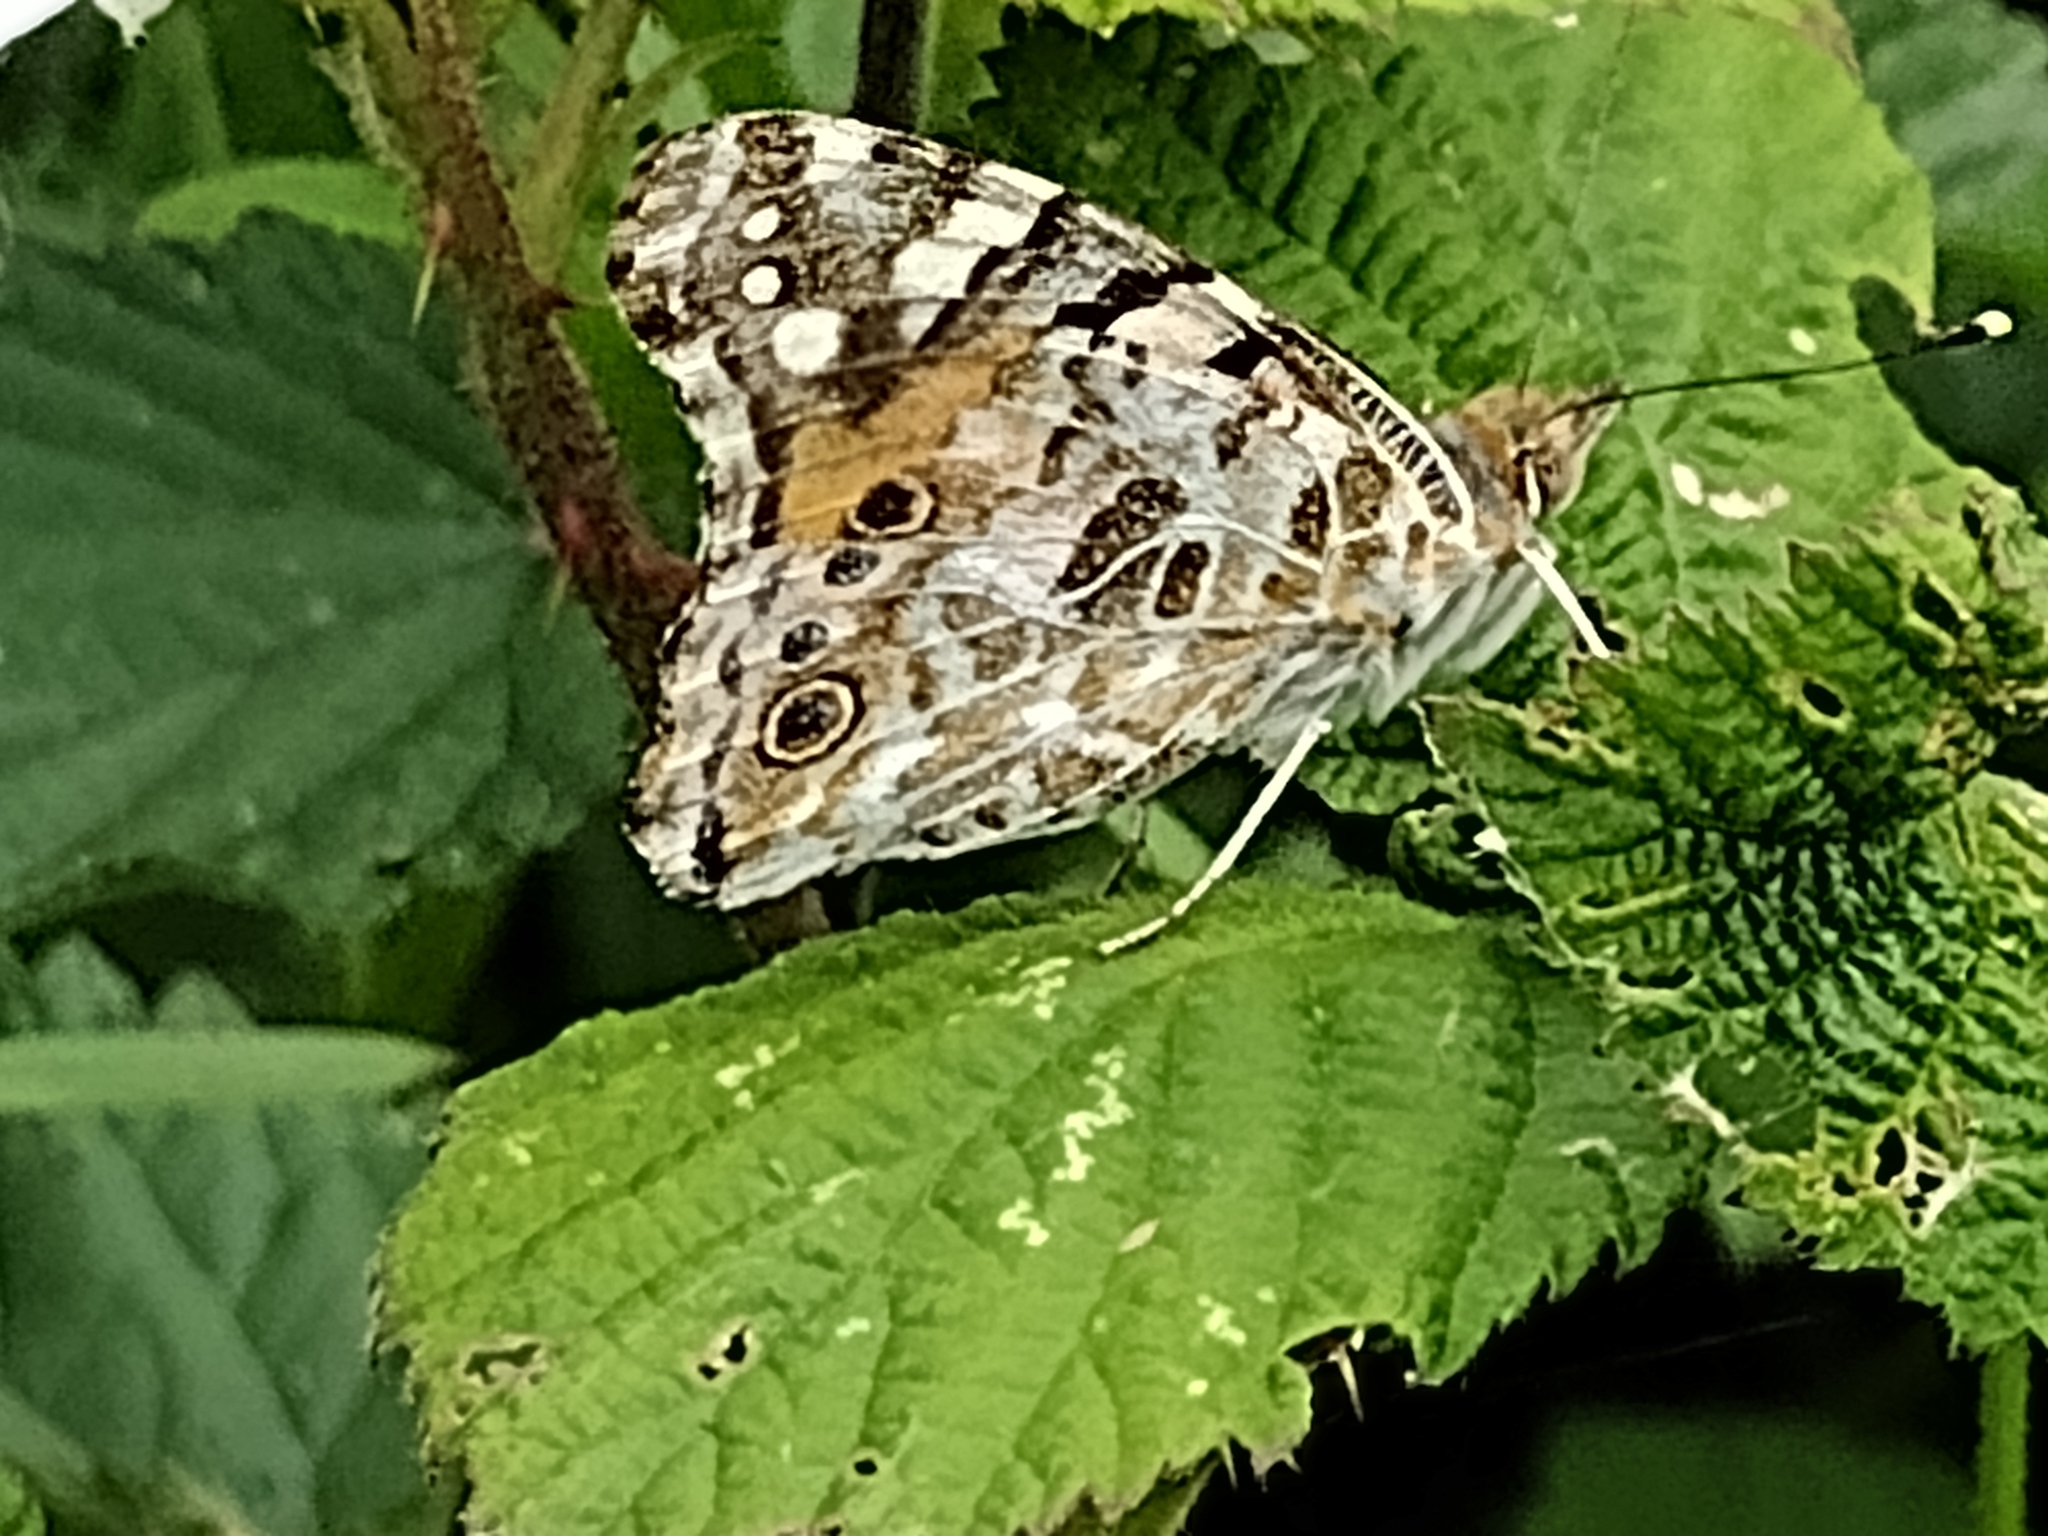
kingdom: Animalia
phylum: Arthropoda
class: Insecta
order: Lepidoptera
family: Nymphalidae
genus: Vanessa
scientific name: Vanessa cardui
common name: Painted lady
